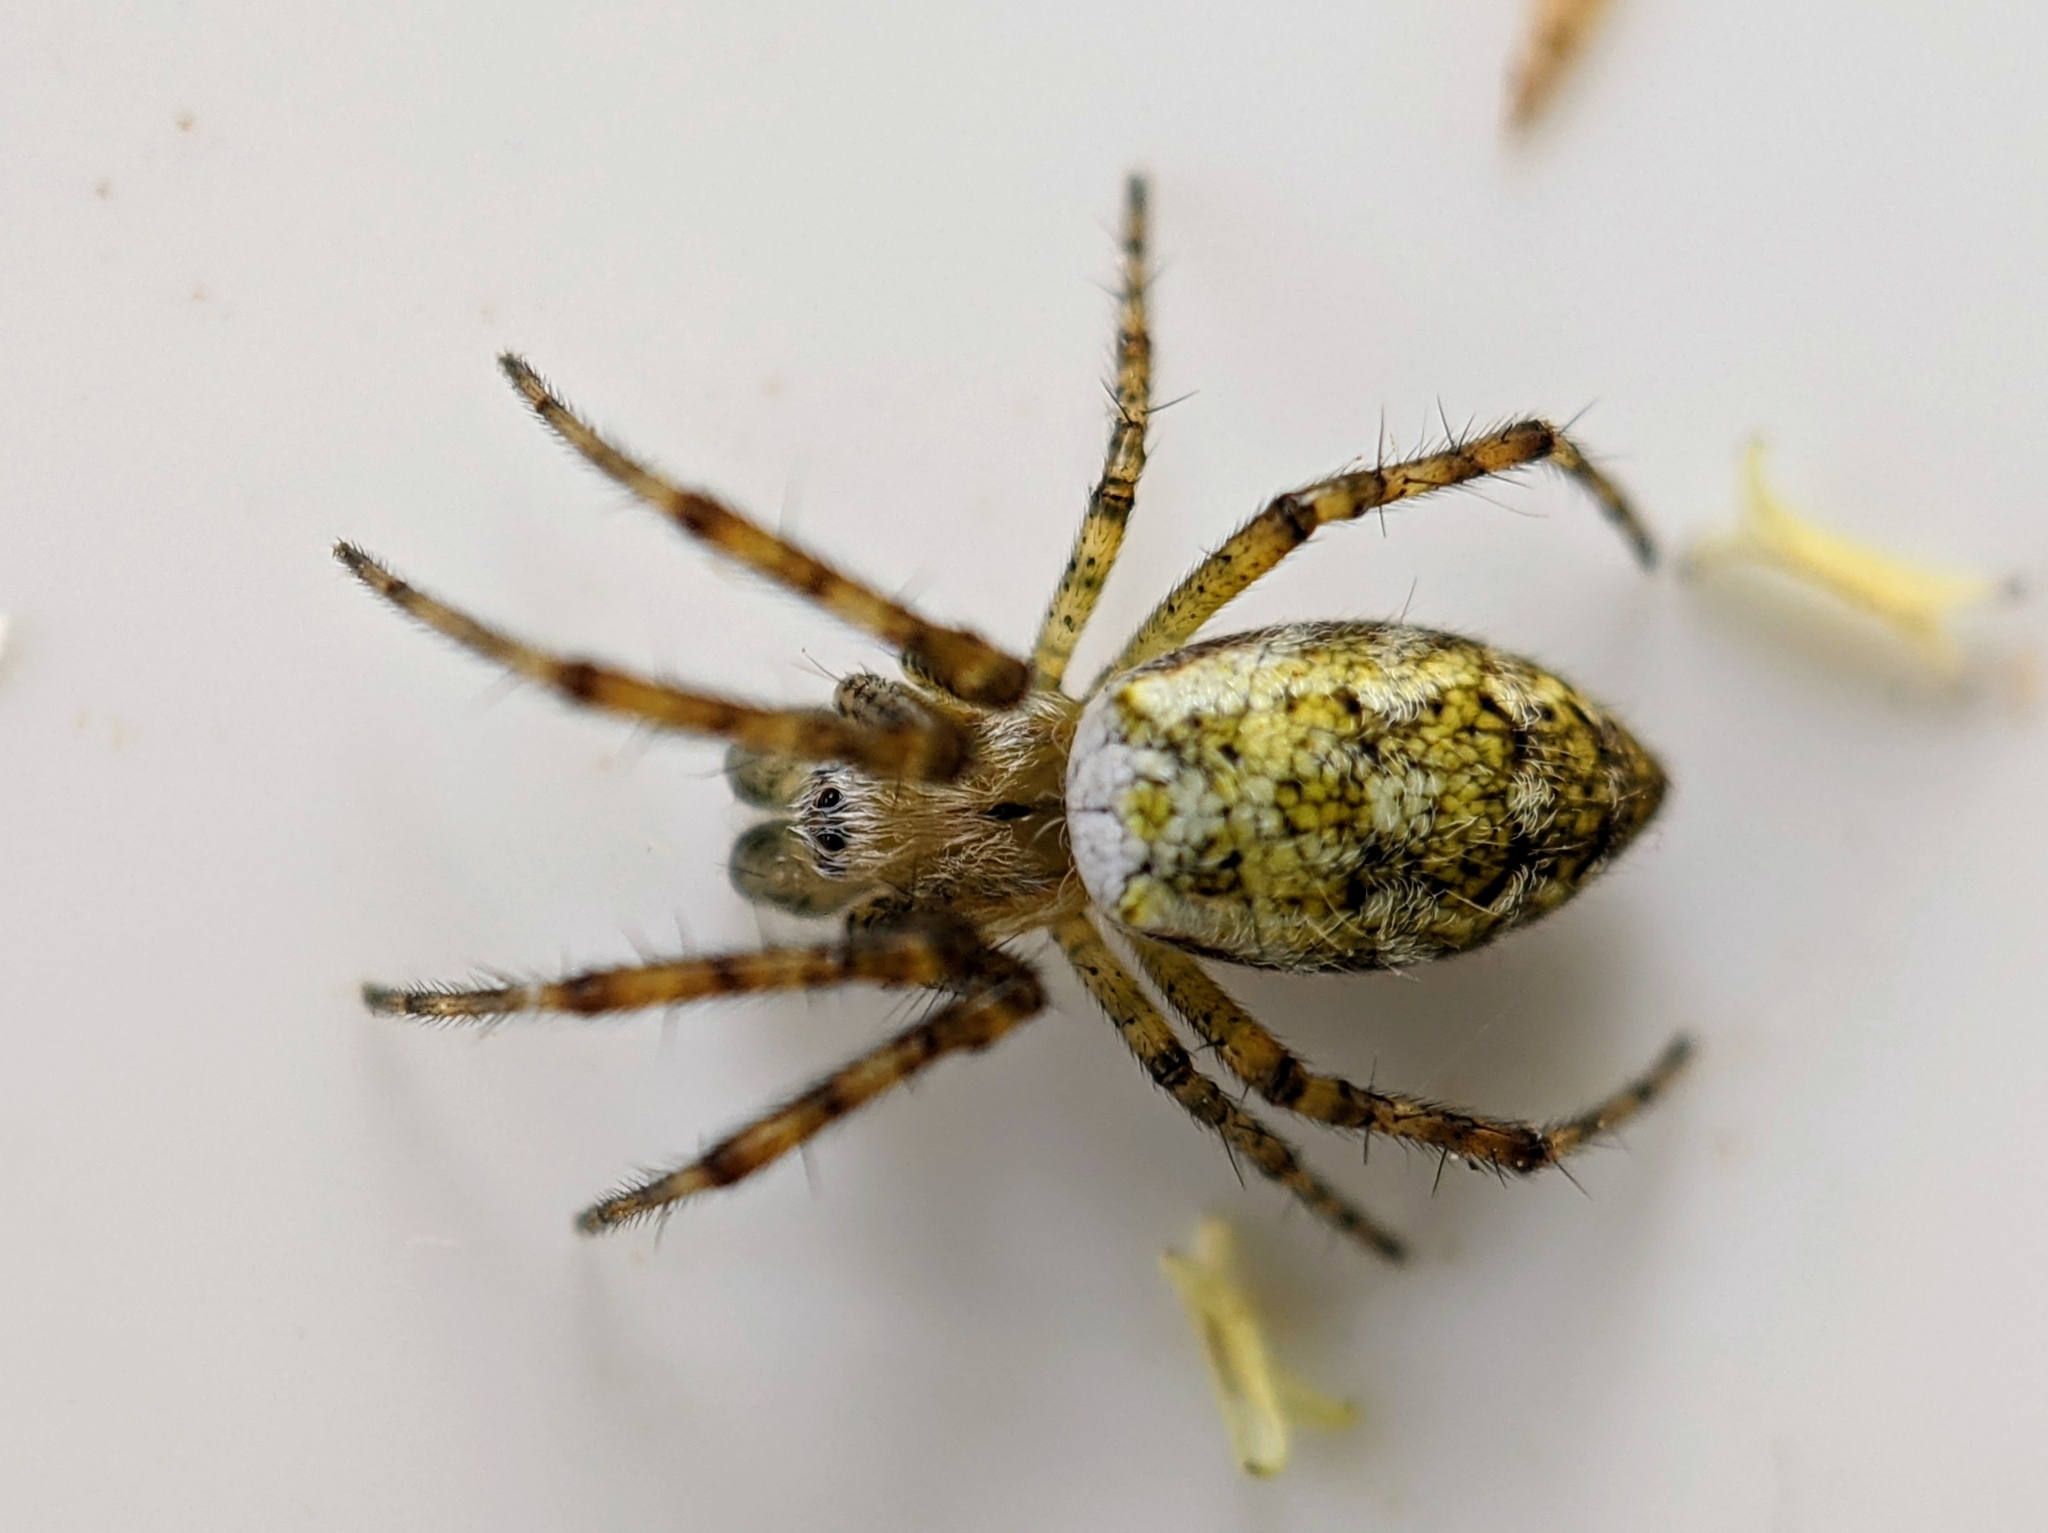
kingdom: Animalia
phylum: Arthropoda
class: Arachnida
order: Araneae
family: Araneidae
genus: Argiope
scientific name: Argiope bruennichi
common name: Wasp spider
